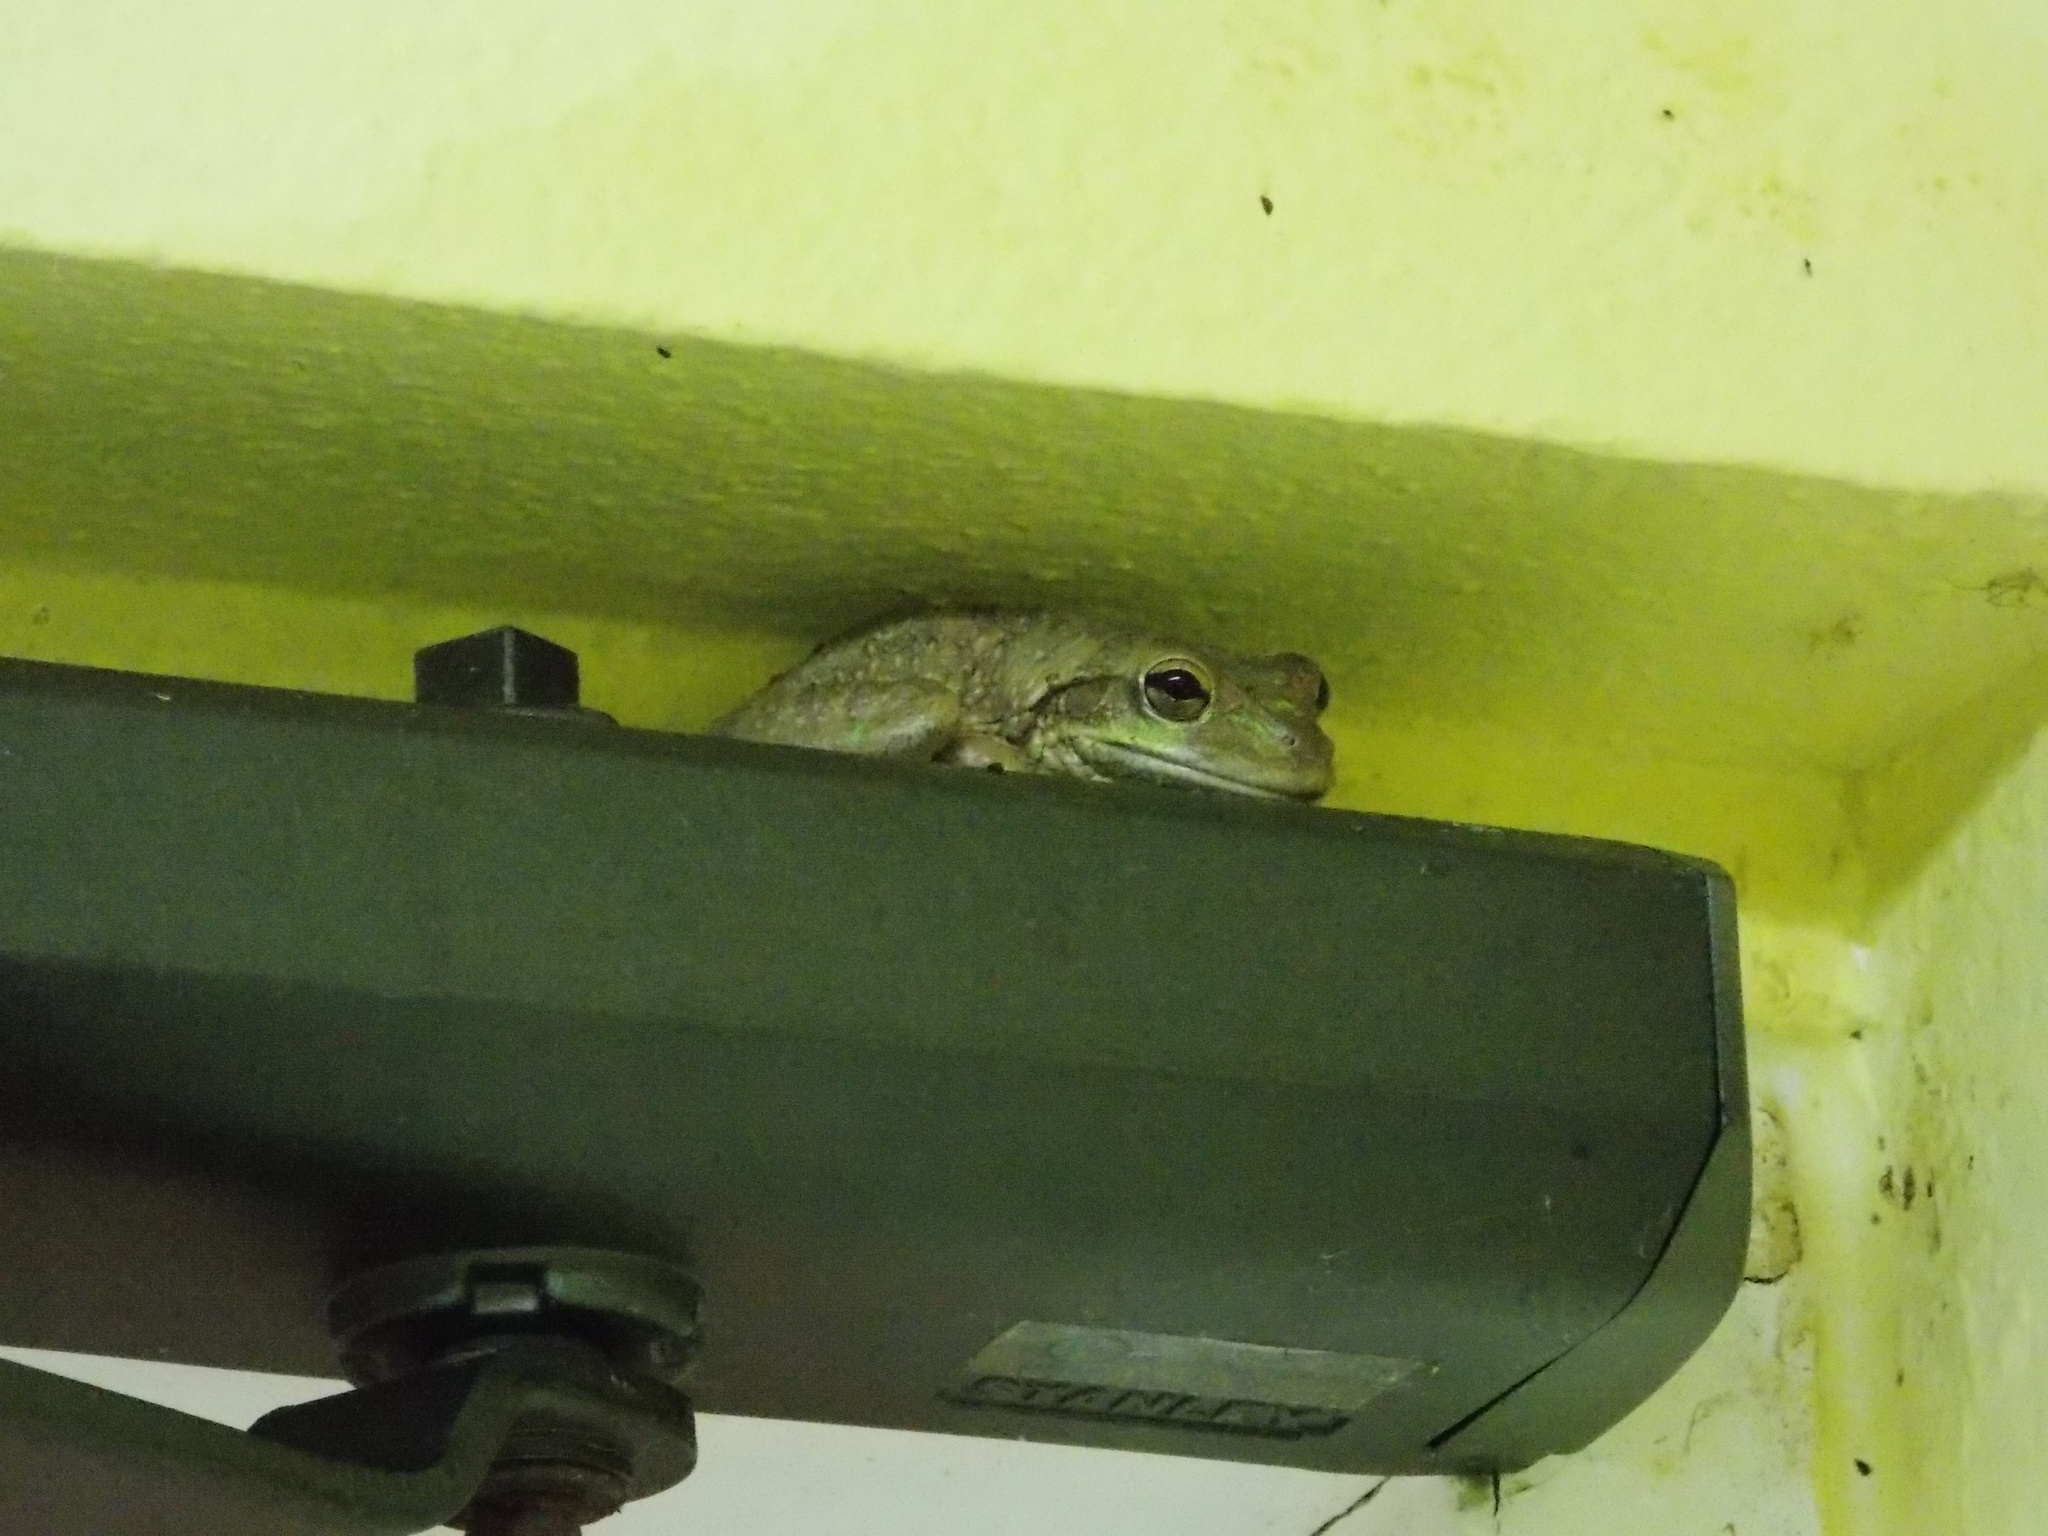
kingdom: Animalia
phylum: Chordata
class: Amphibia
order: Anura
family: Hylidae
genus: Osteopilus
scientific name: Osteopilus septentrionalis
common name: Cuban treefrog
